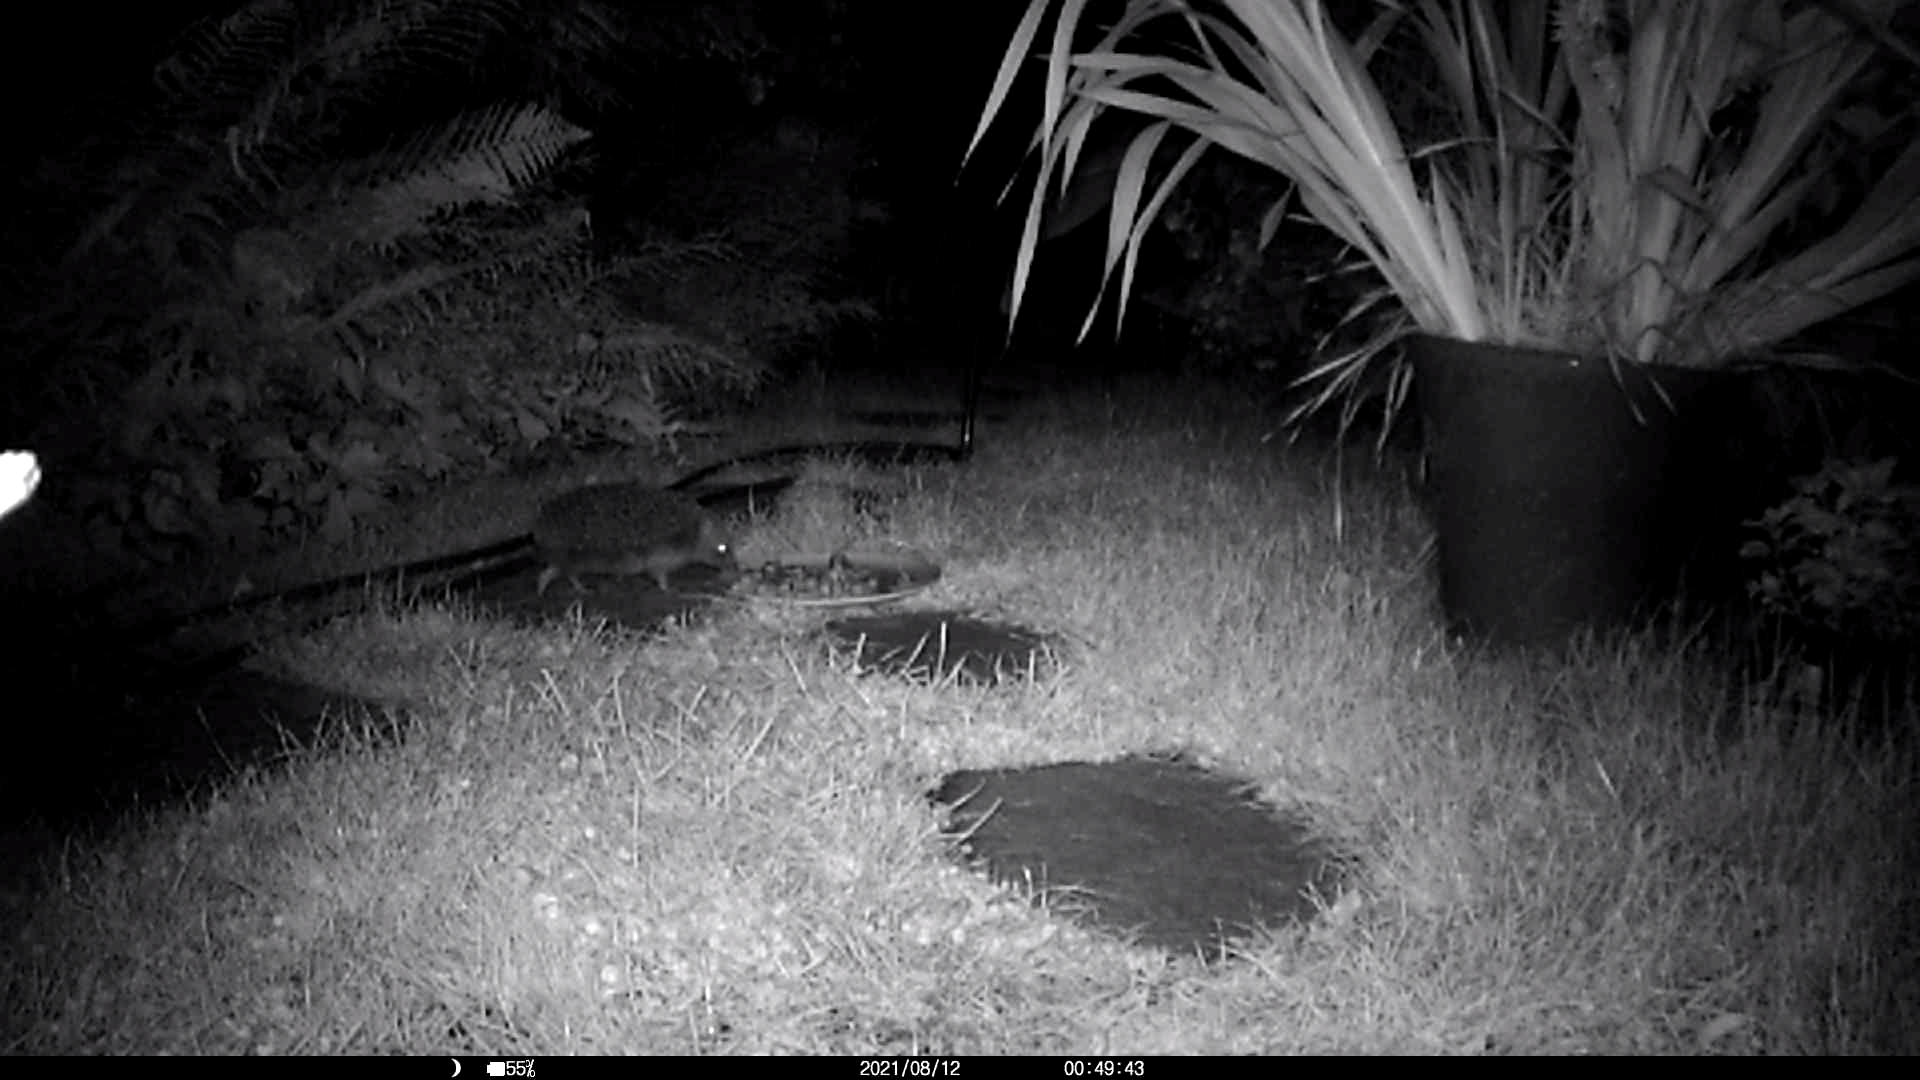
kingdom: Animalia
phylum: Chordata
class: Mammalia
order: Erinaceomorpha
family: Erinaceidae
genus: Erinaceus
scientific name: Erinaceus europaeus
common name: West european hedgehog
